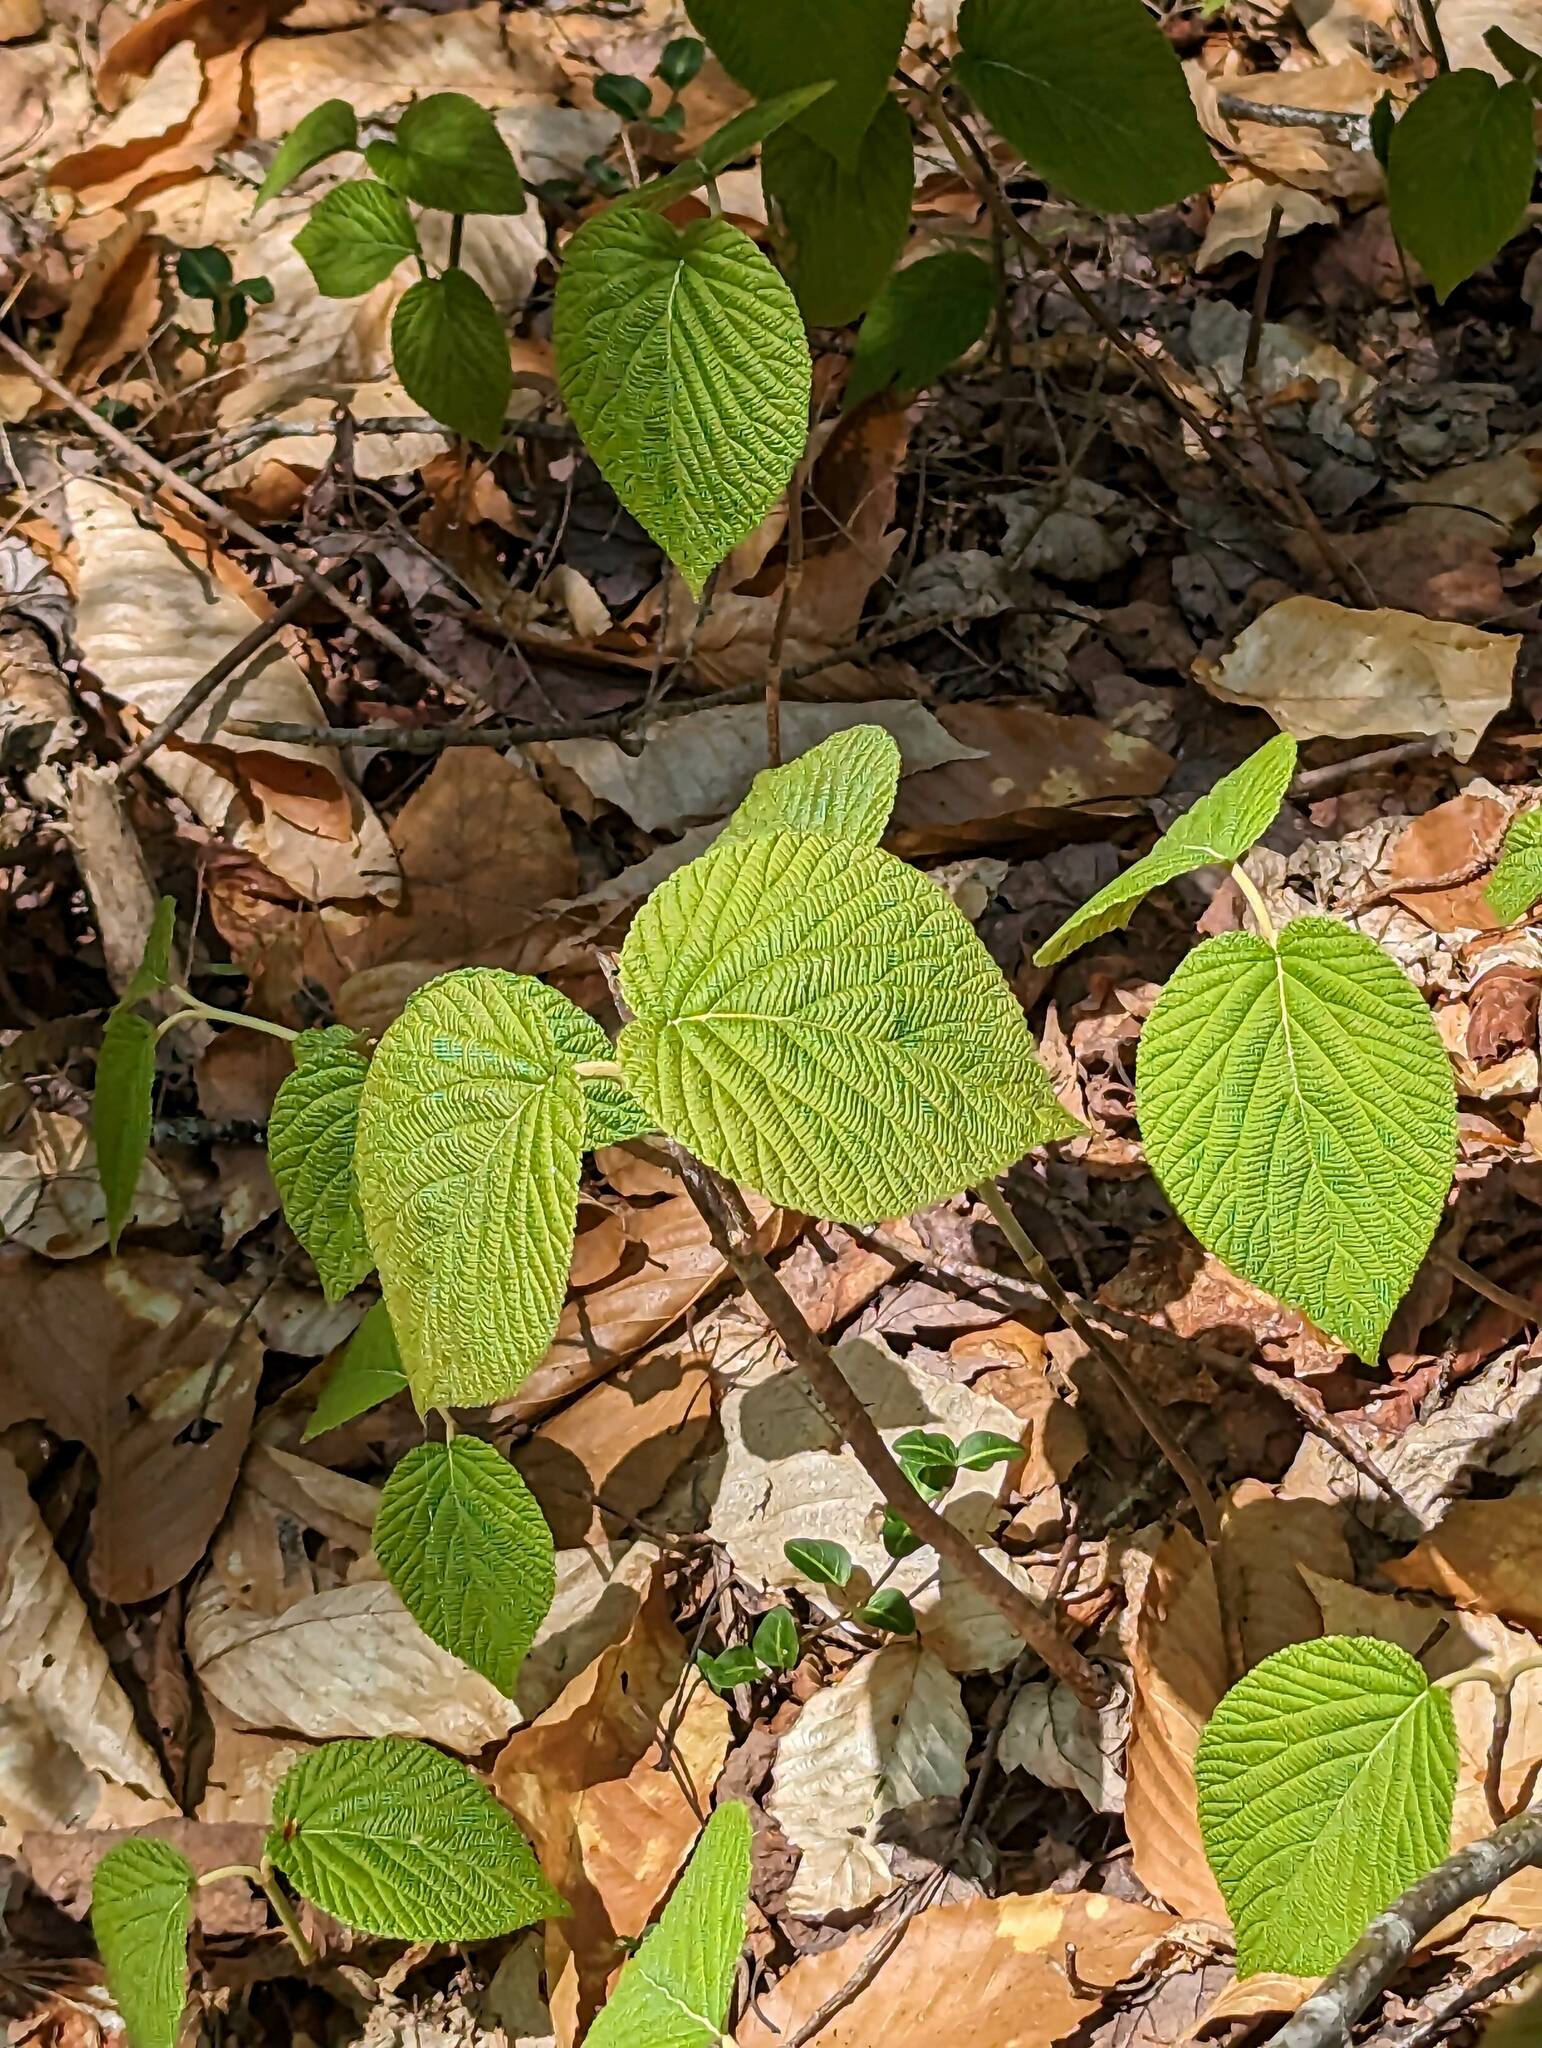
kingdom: Plantae
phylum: Tracheophyta
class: Magnoliopsida
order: Dipsacales
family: Viburnaceae
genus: Viburnum
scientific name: Viburnum lantanoides
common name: Hobblebush
